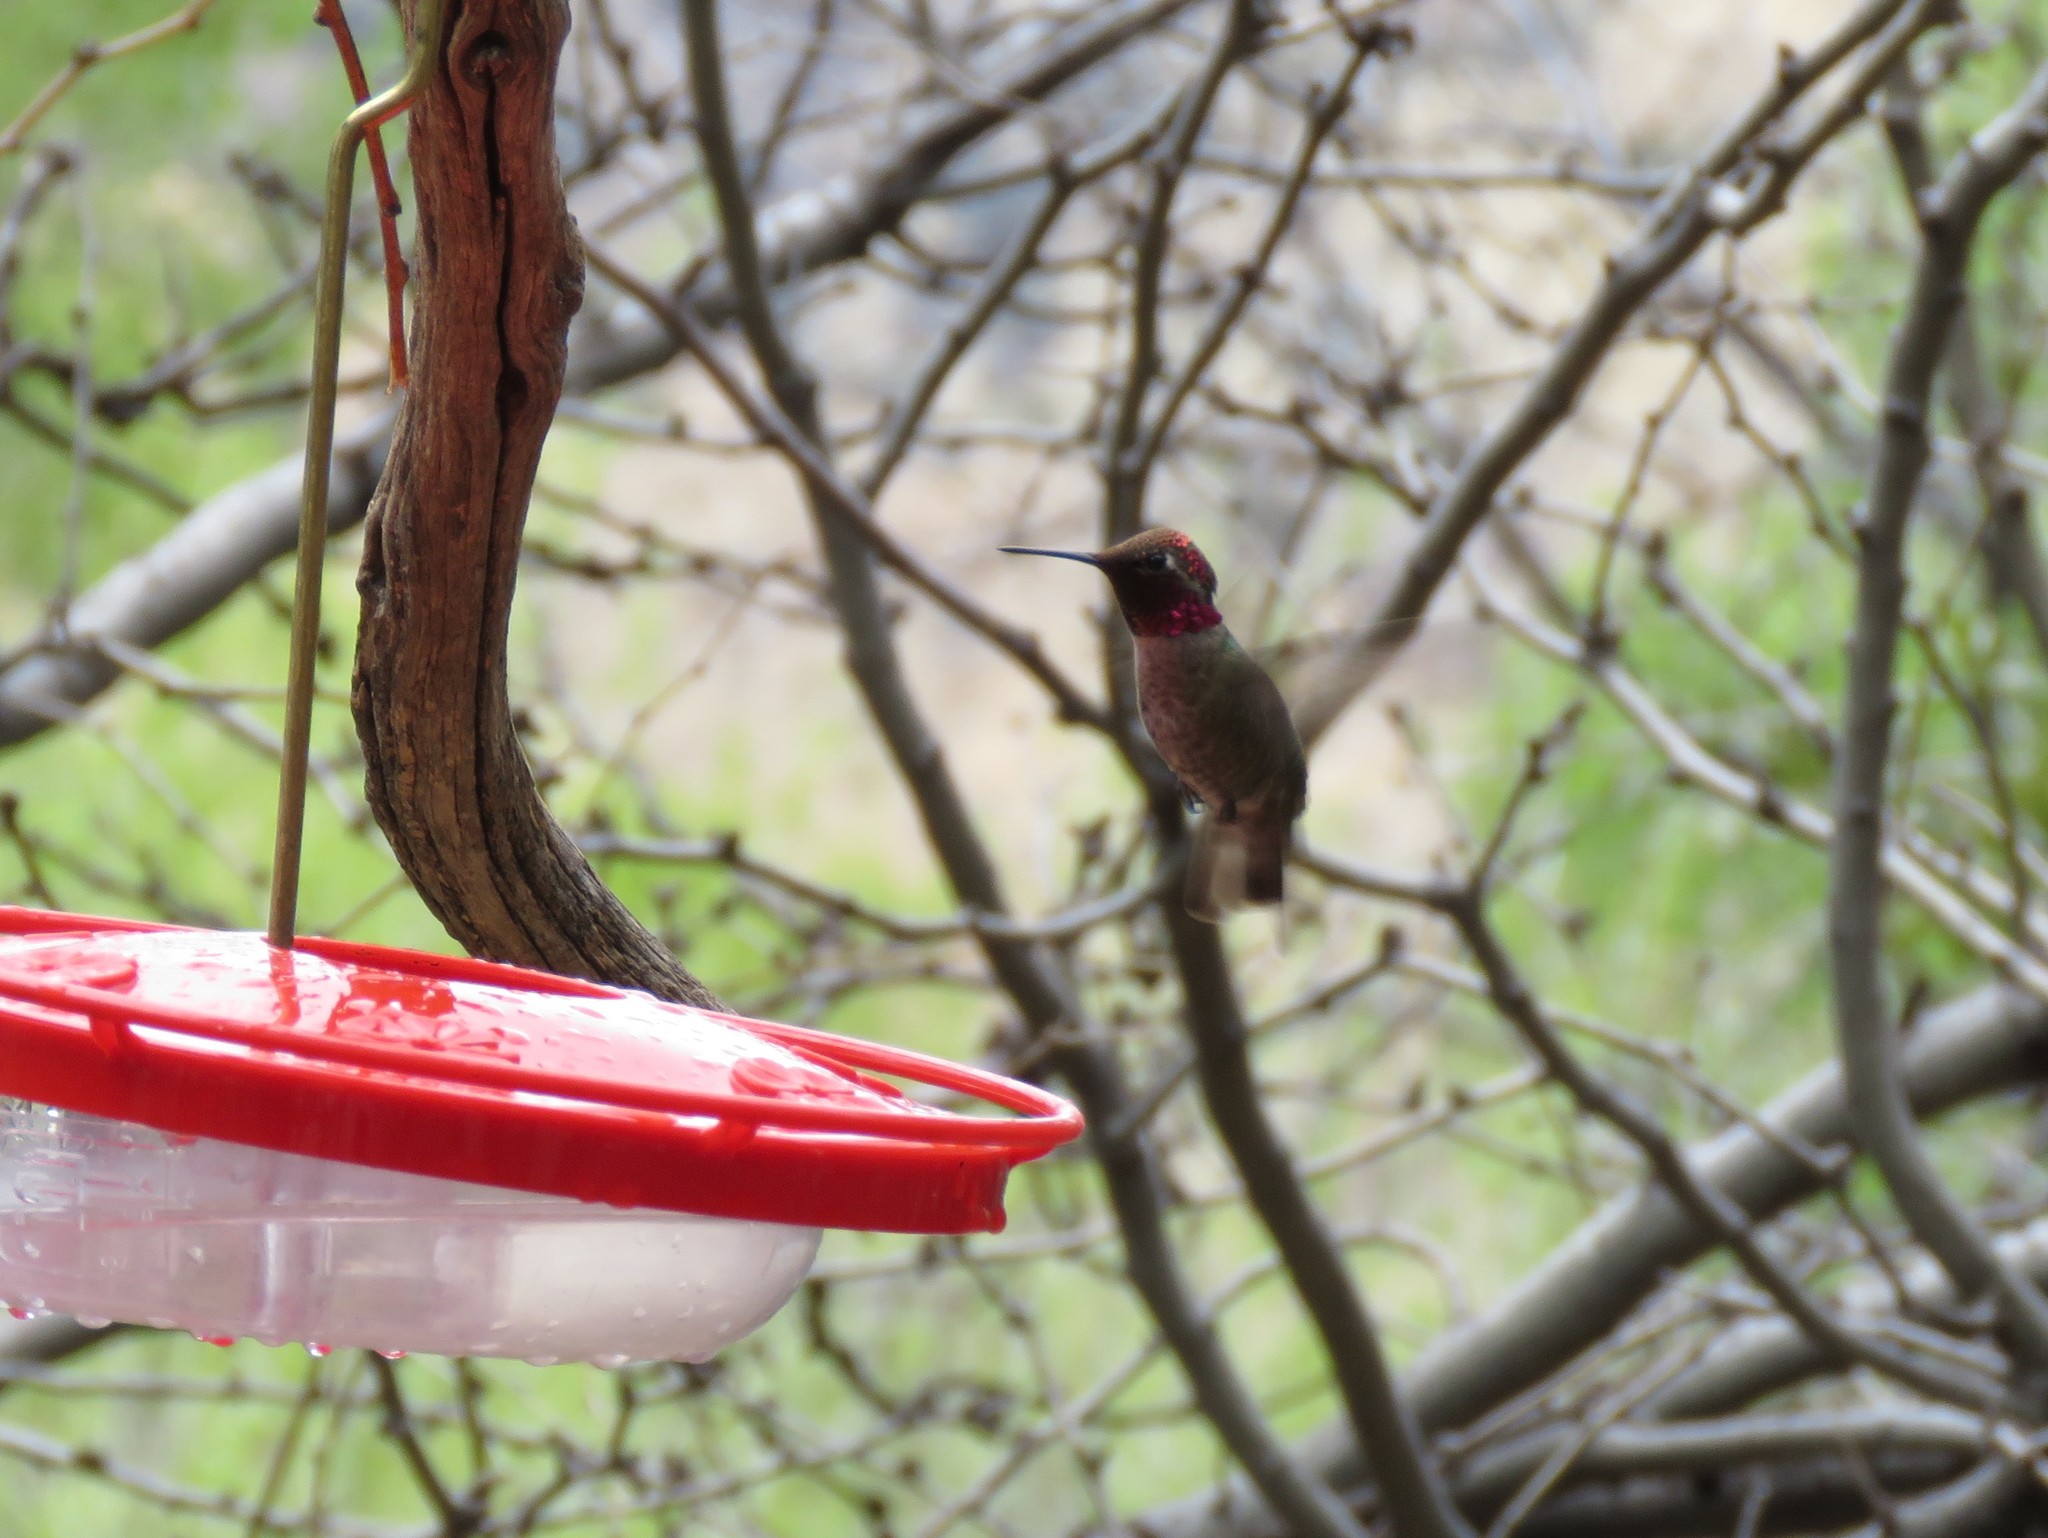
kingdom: Animalia
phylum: Chordata
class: Aves
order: Apodiformes
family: Trochilidae
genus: Calypte
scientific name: Calypte anna
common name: Anna's hummingbird
